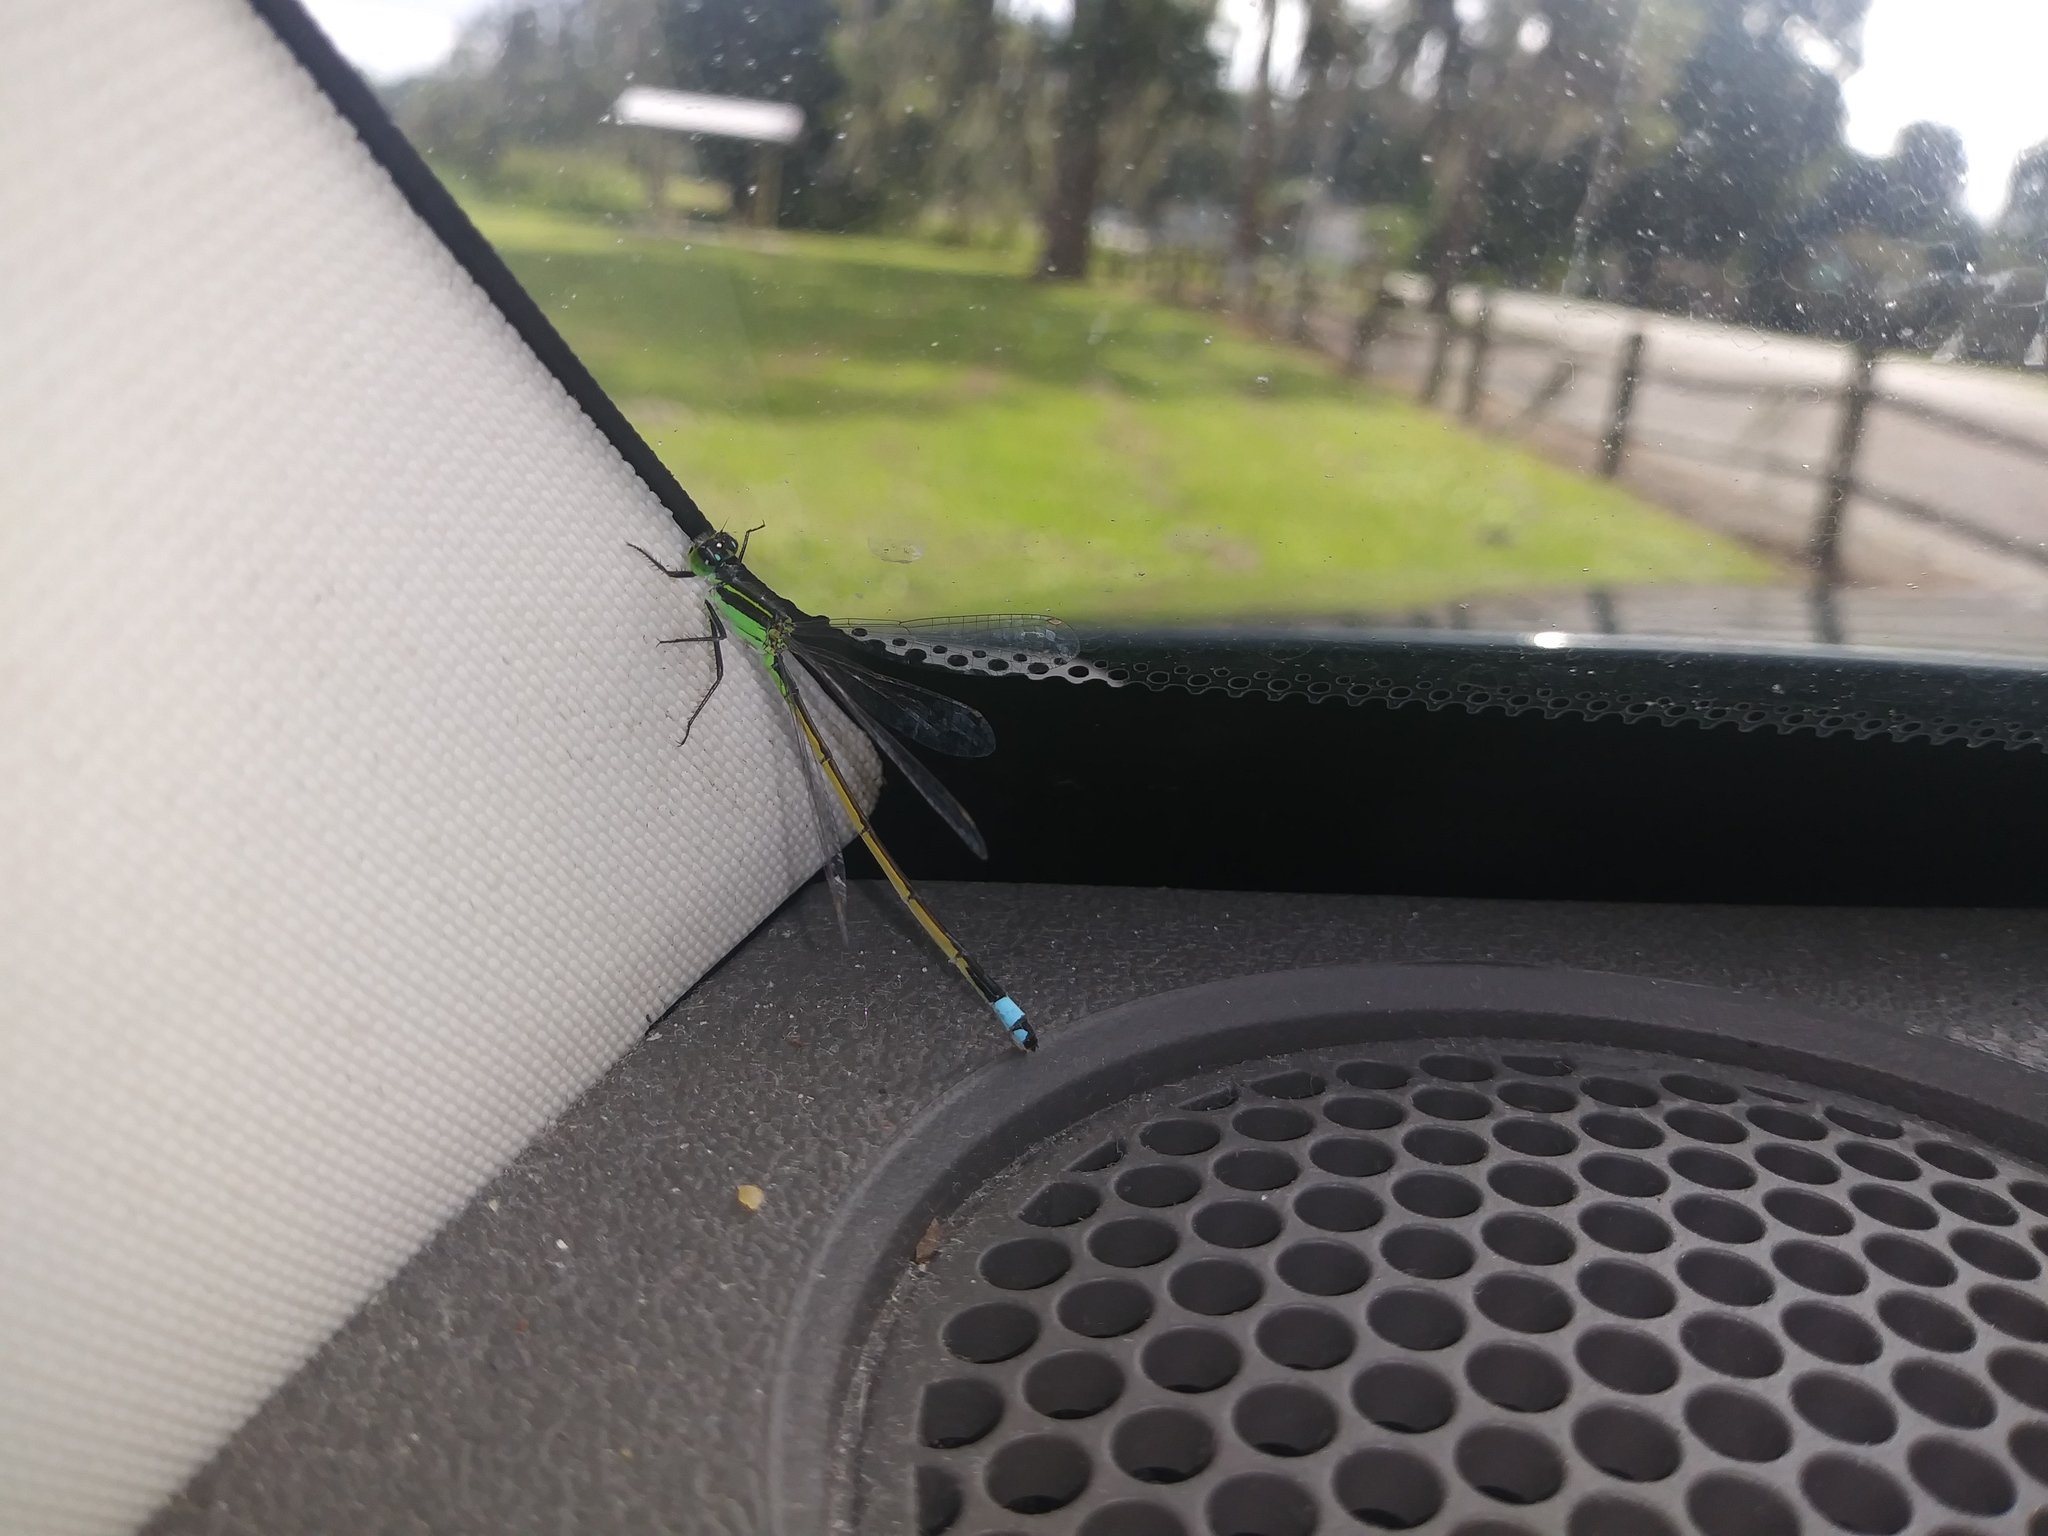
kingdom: Animalia
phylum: Arthropoda
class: Insecta
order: Odonata
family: Coenagrionidae
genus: Ischnura
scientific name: Ischnura ramburii
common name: Rambur's forktail
